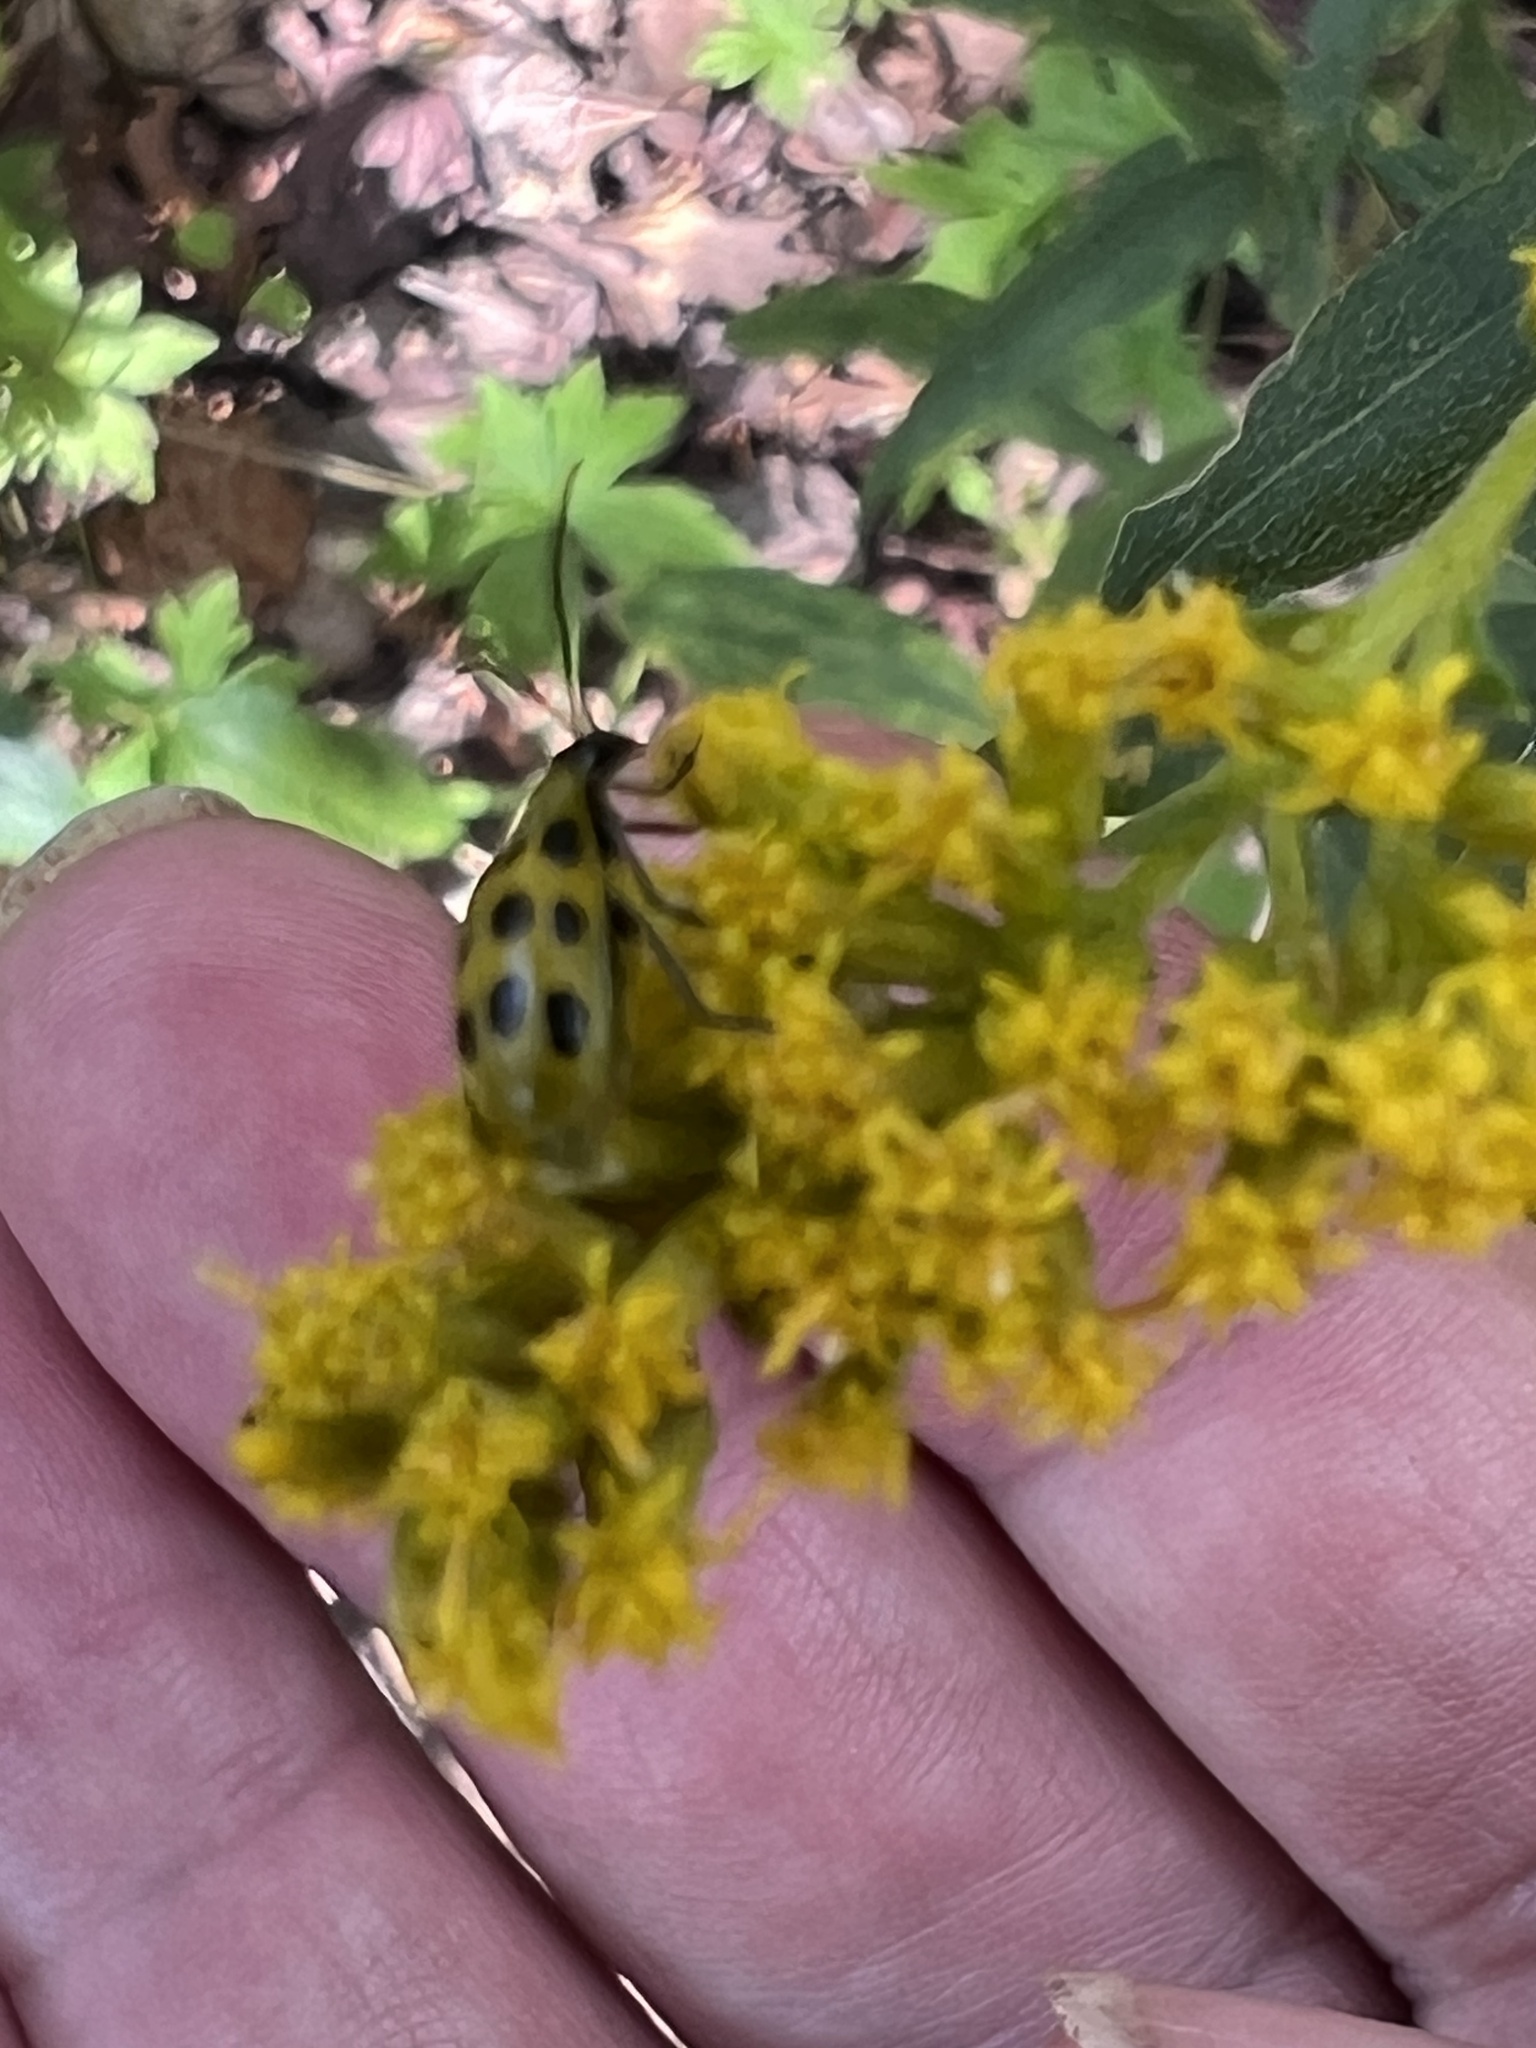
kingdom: Animalia
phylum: Arthropoda
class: Insecta
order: Coleoptera
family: Chrysomelidae
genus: Diabrotica
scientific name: Diabrotica undecimpunctata
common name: Spotted cucumber beetle
